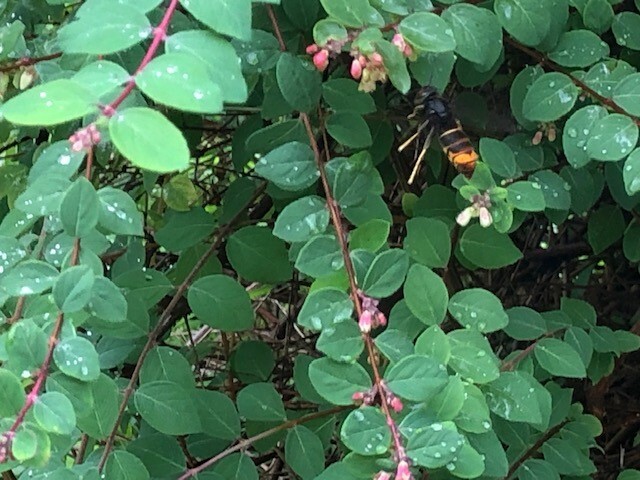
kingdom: Animalia
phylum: Arthropoda
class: Insecta
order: Hymenoptera
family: Vespidae
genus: Vespa
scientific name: Vespa velutina
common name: Asian hornet
